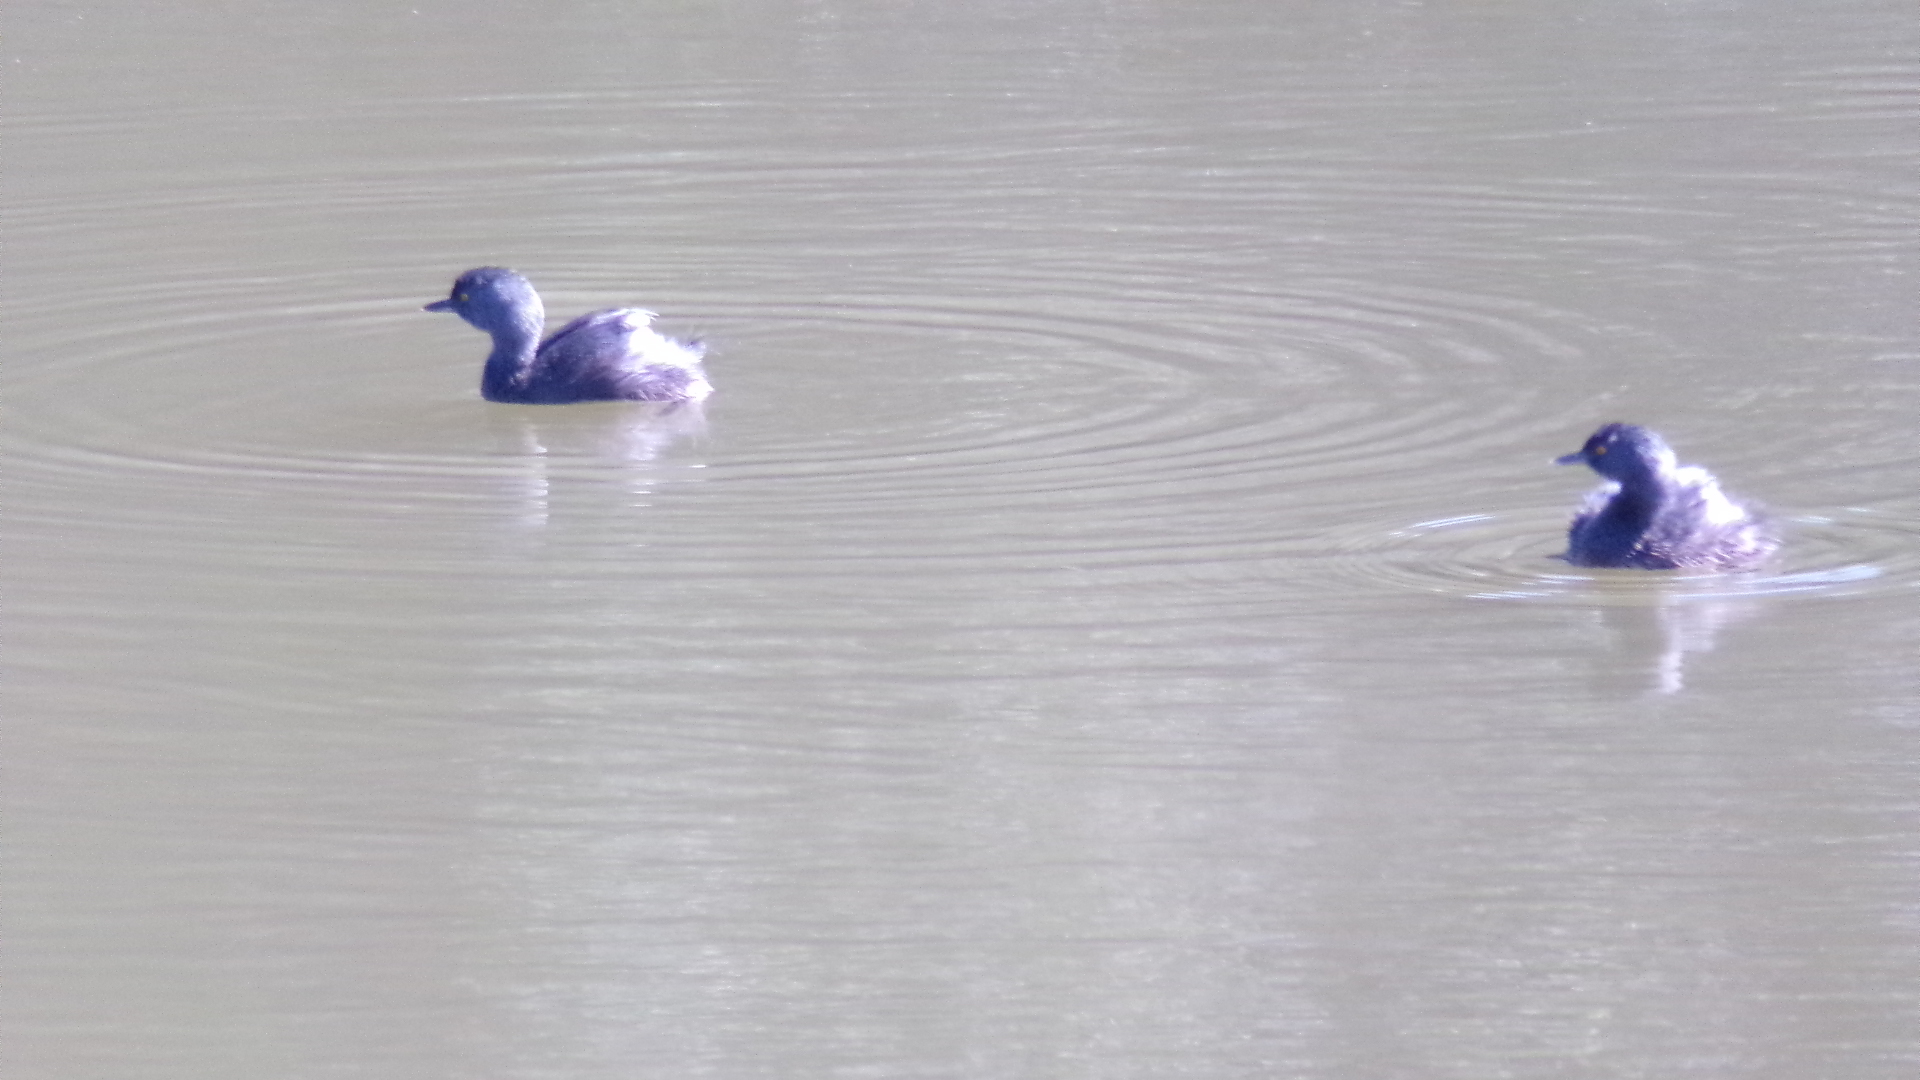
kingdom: Animalia
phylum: Chordata
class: Aves
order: Podicipediformes
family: Podicipedidae
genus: Tachybaptus
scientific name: Tachybaptus dominicus
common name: Least grebe
